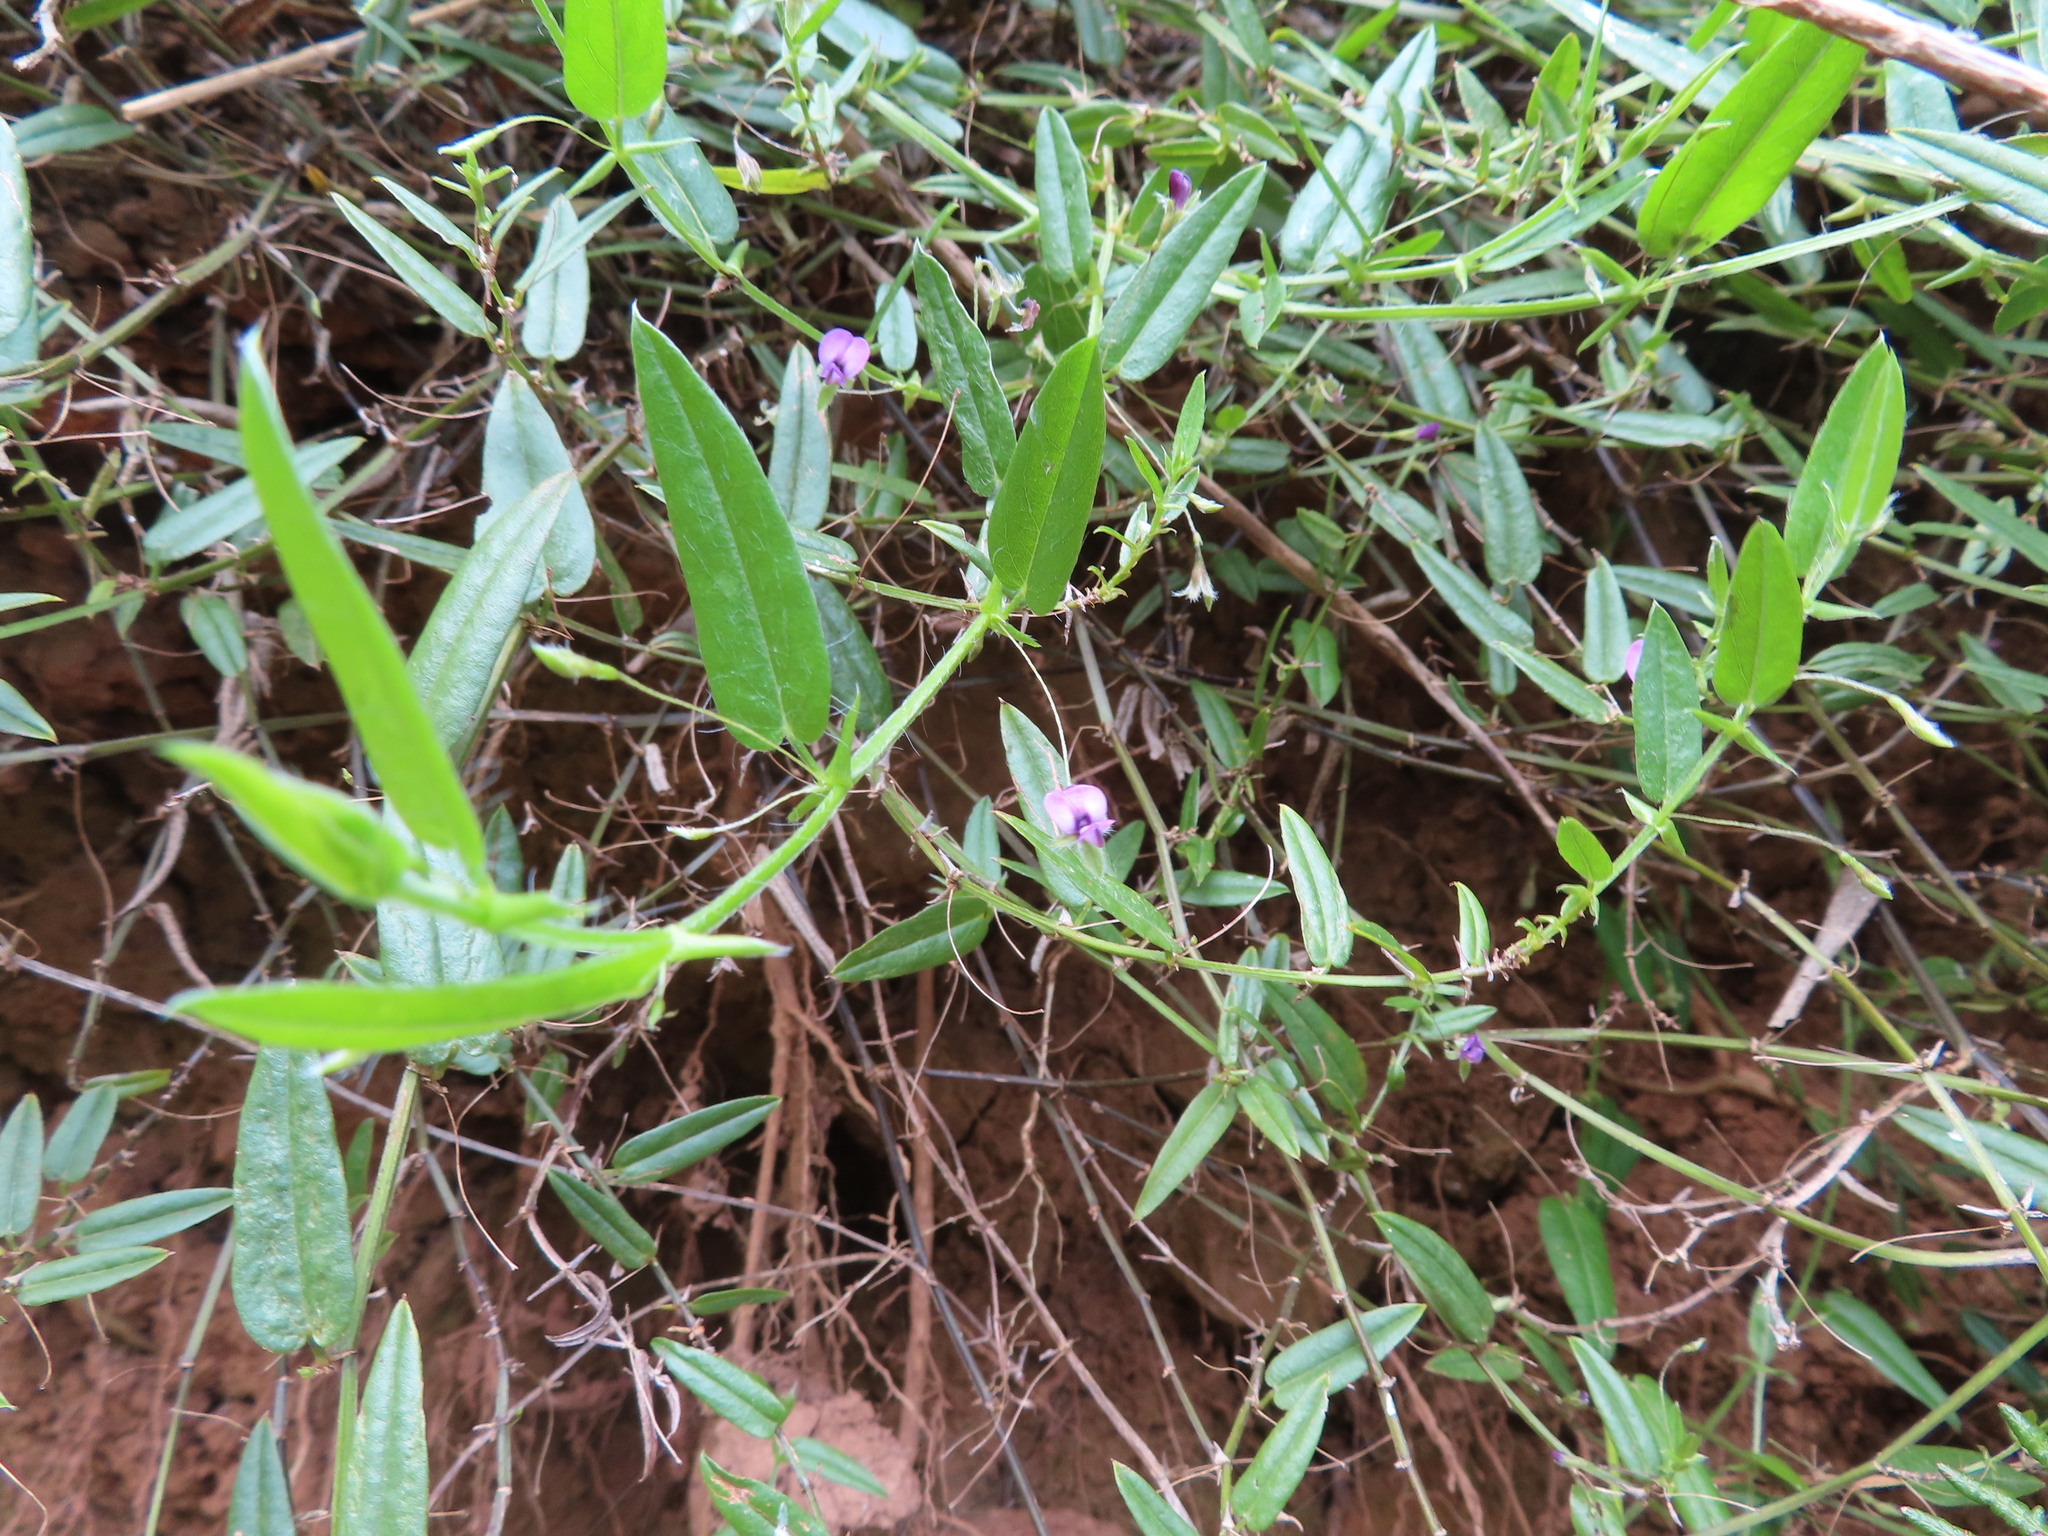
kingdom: Plantae
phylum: Tracheophyta
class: Magnoliopsida
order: Fabales
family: Fabaceae
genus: Psoralea
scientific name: Psoralea asarina
